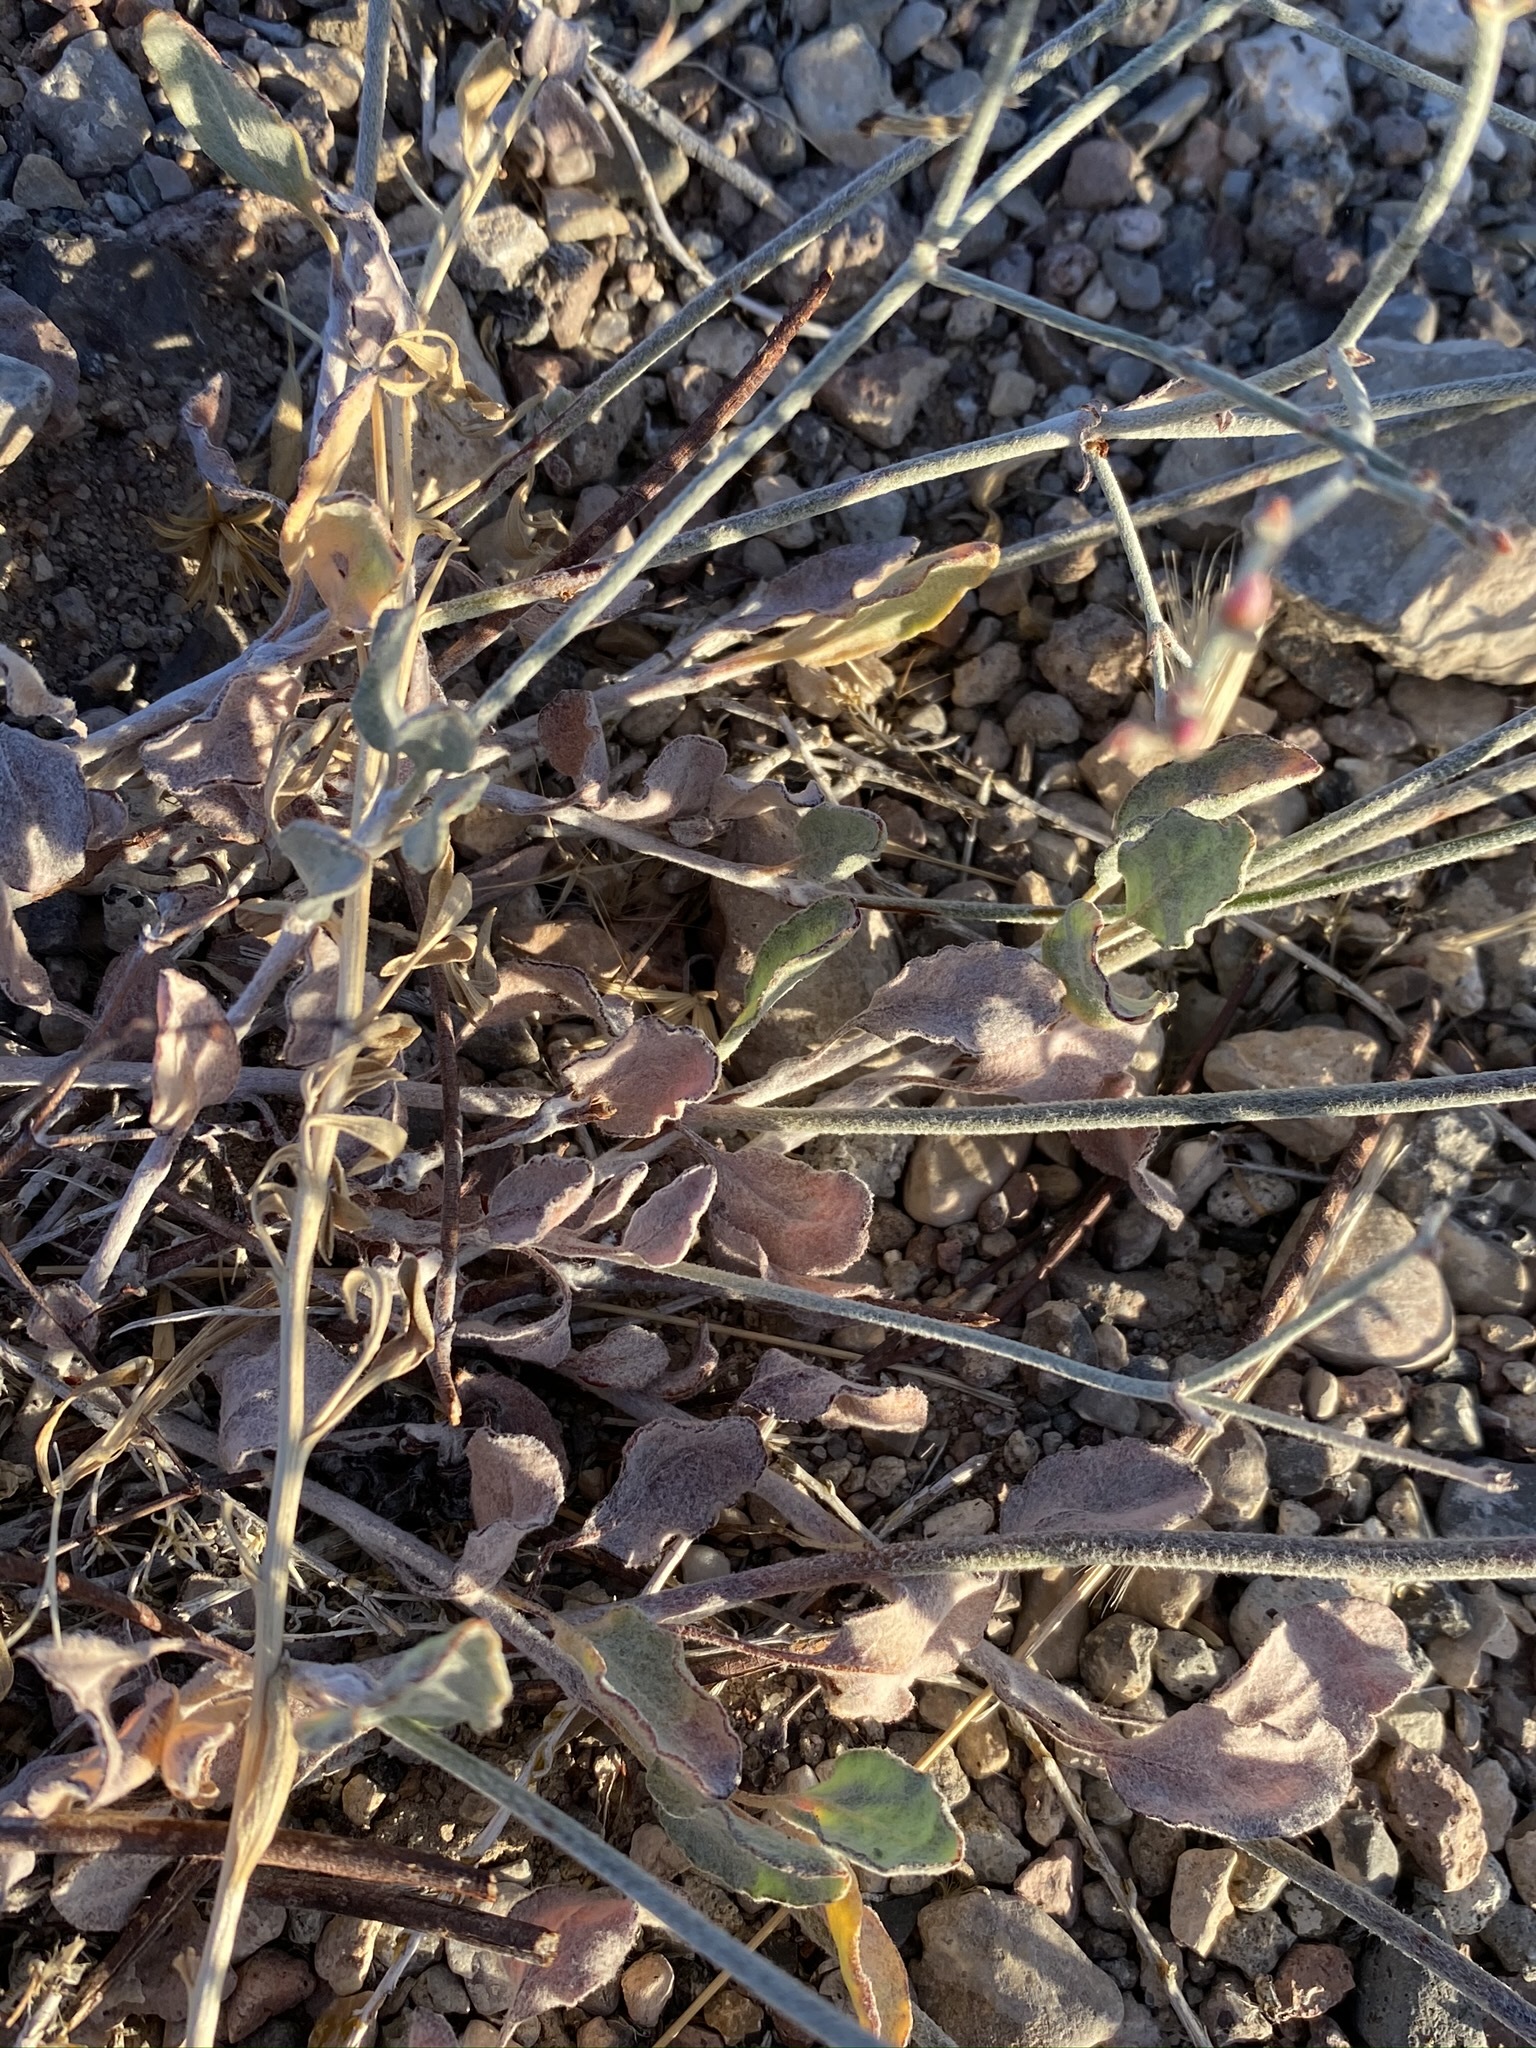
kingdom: Plantae
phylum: Tracheophyta
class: Magnoliopsida
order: Caryophyllales
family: Polygonaceae
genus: Eriogonum
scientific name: Eriogonum nummulare
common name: Kearney wild buckwheat
